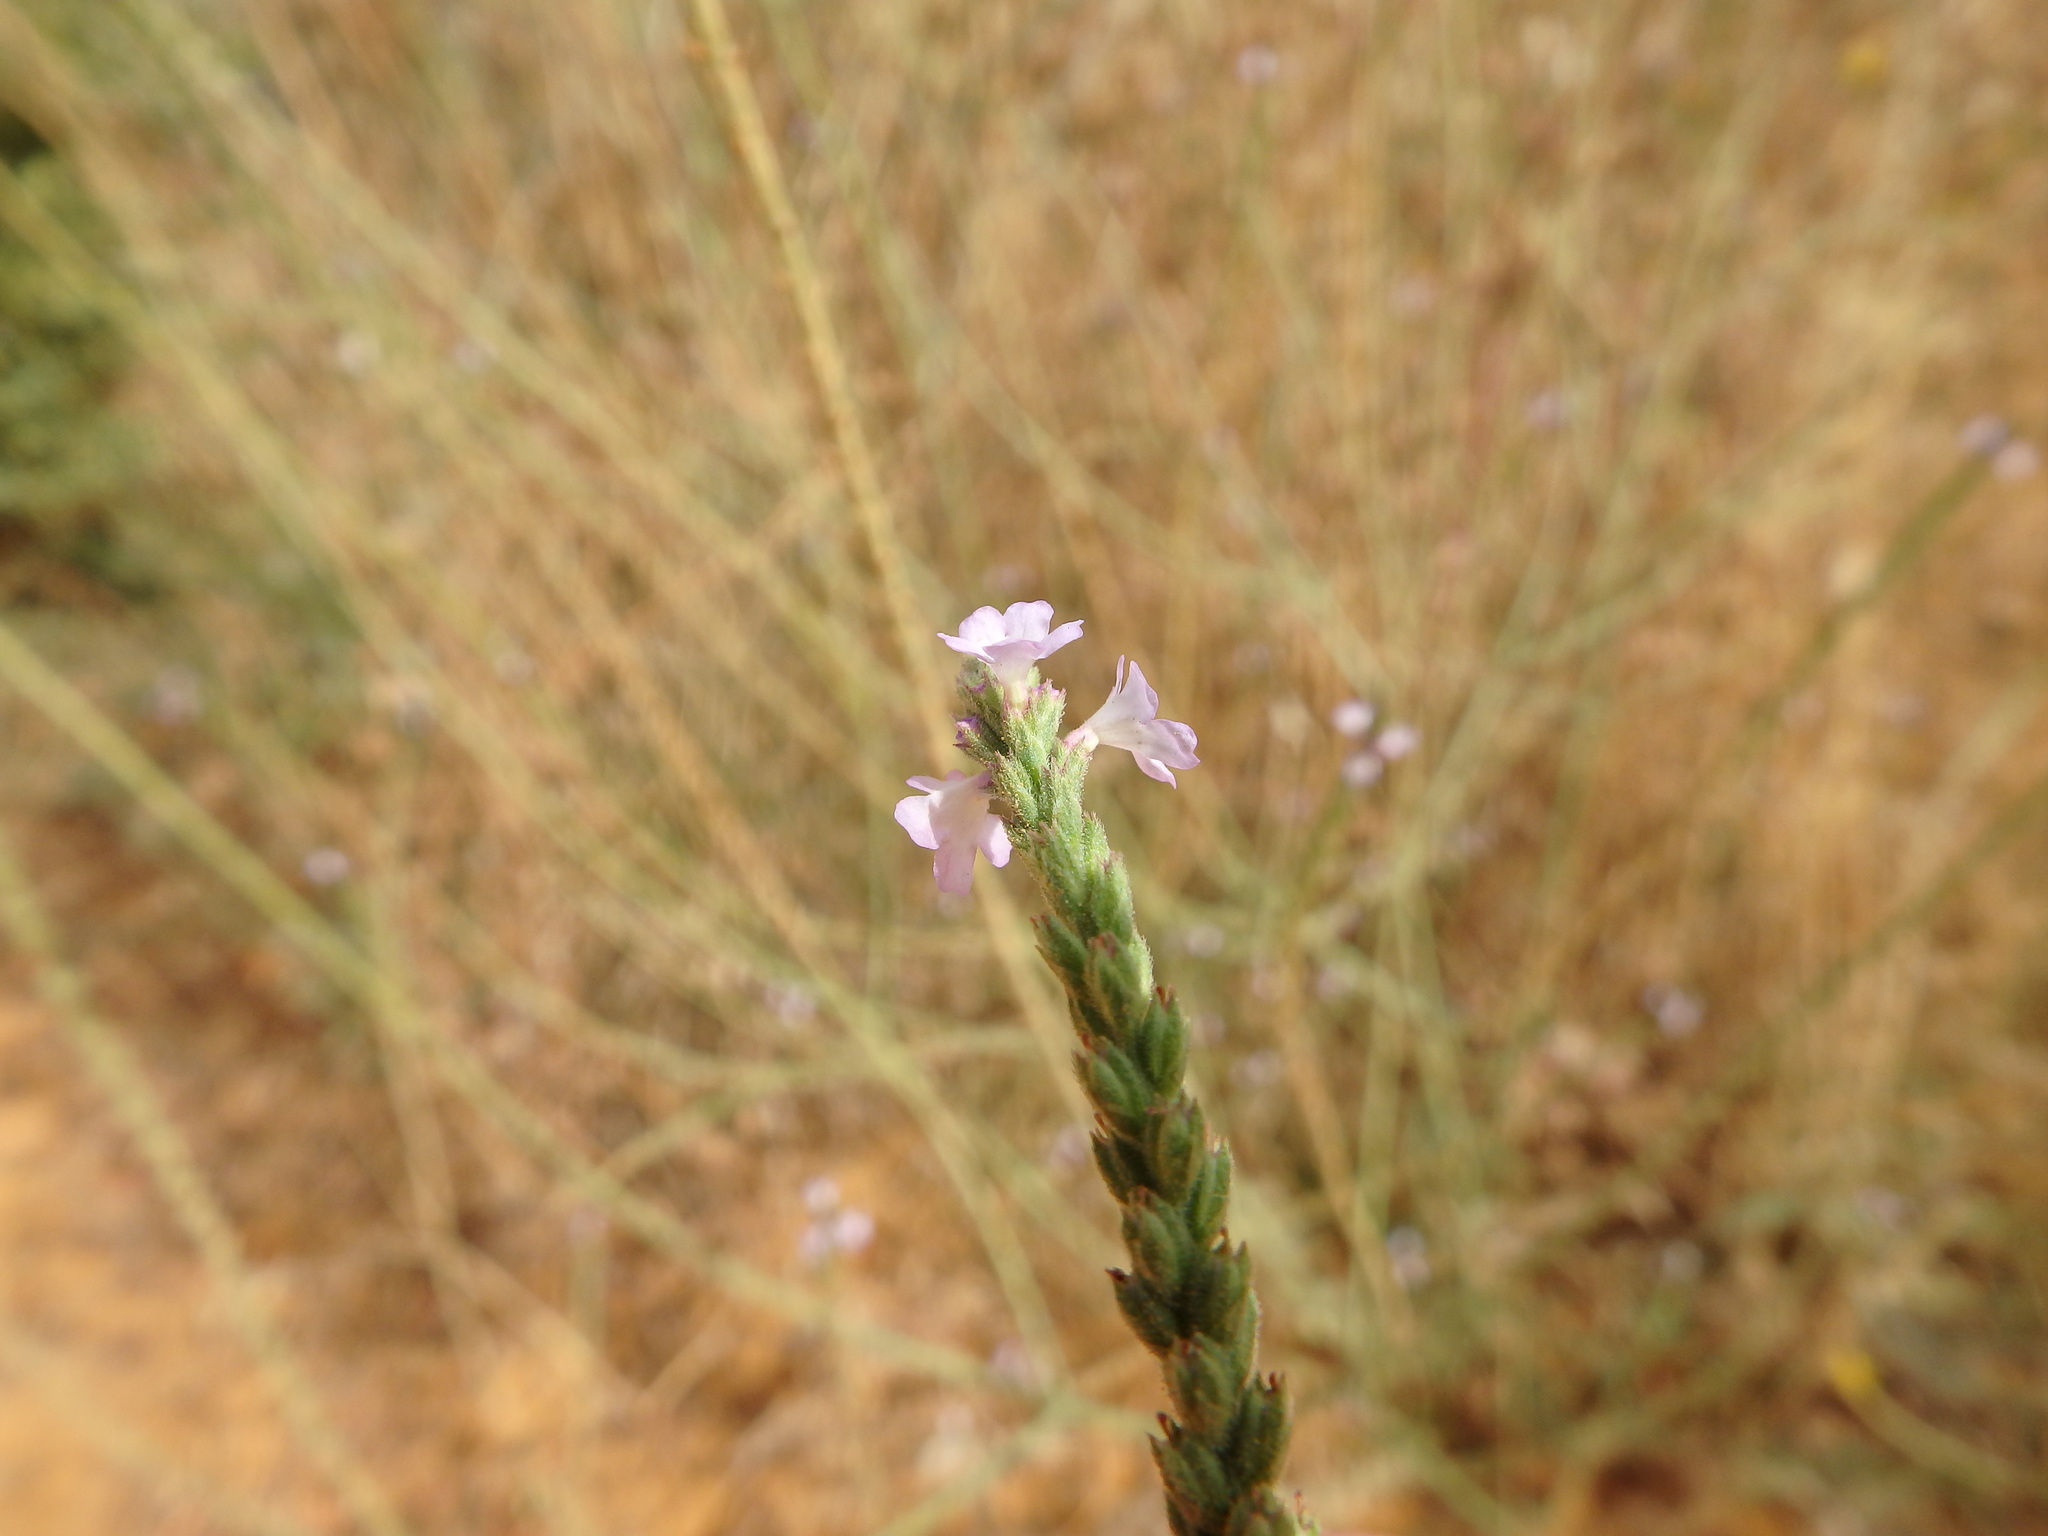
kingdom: Plantae
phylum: Tracheophyta
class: Magnoliopsida
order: Lamiales
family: Verbenaceae
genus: Verbena
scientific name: Verbena officinalis
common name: Vervain
